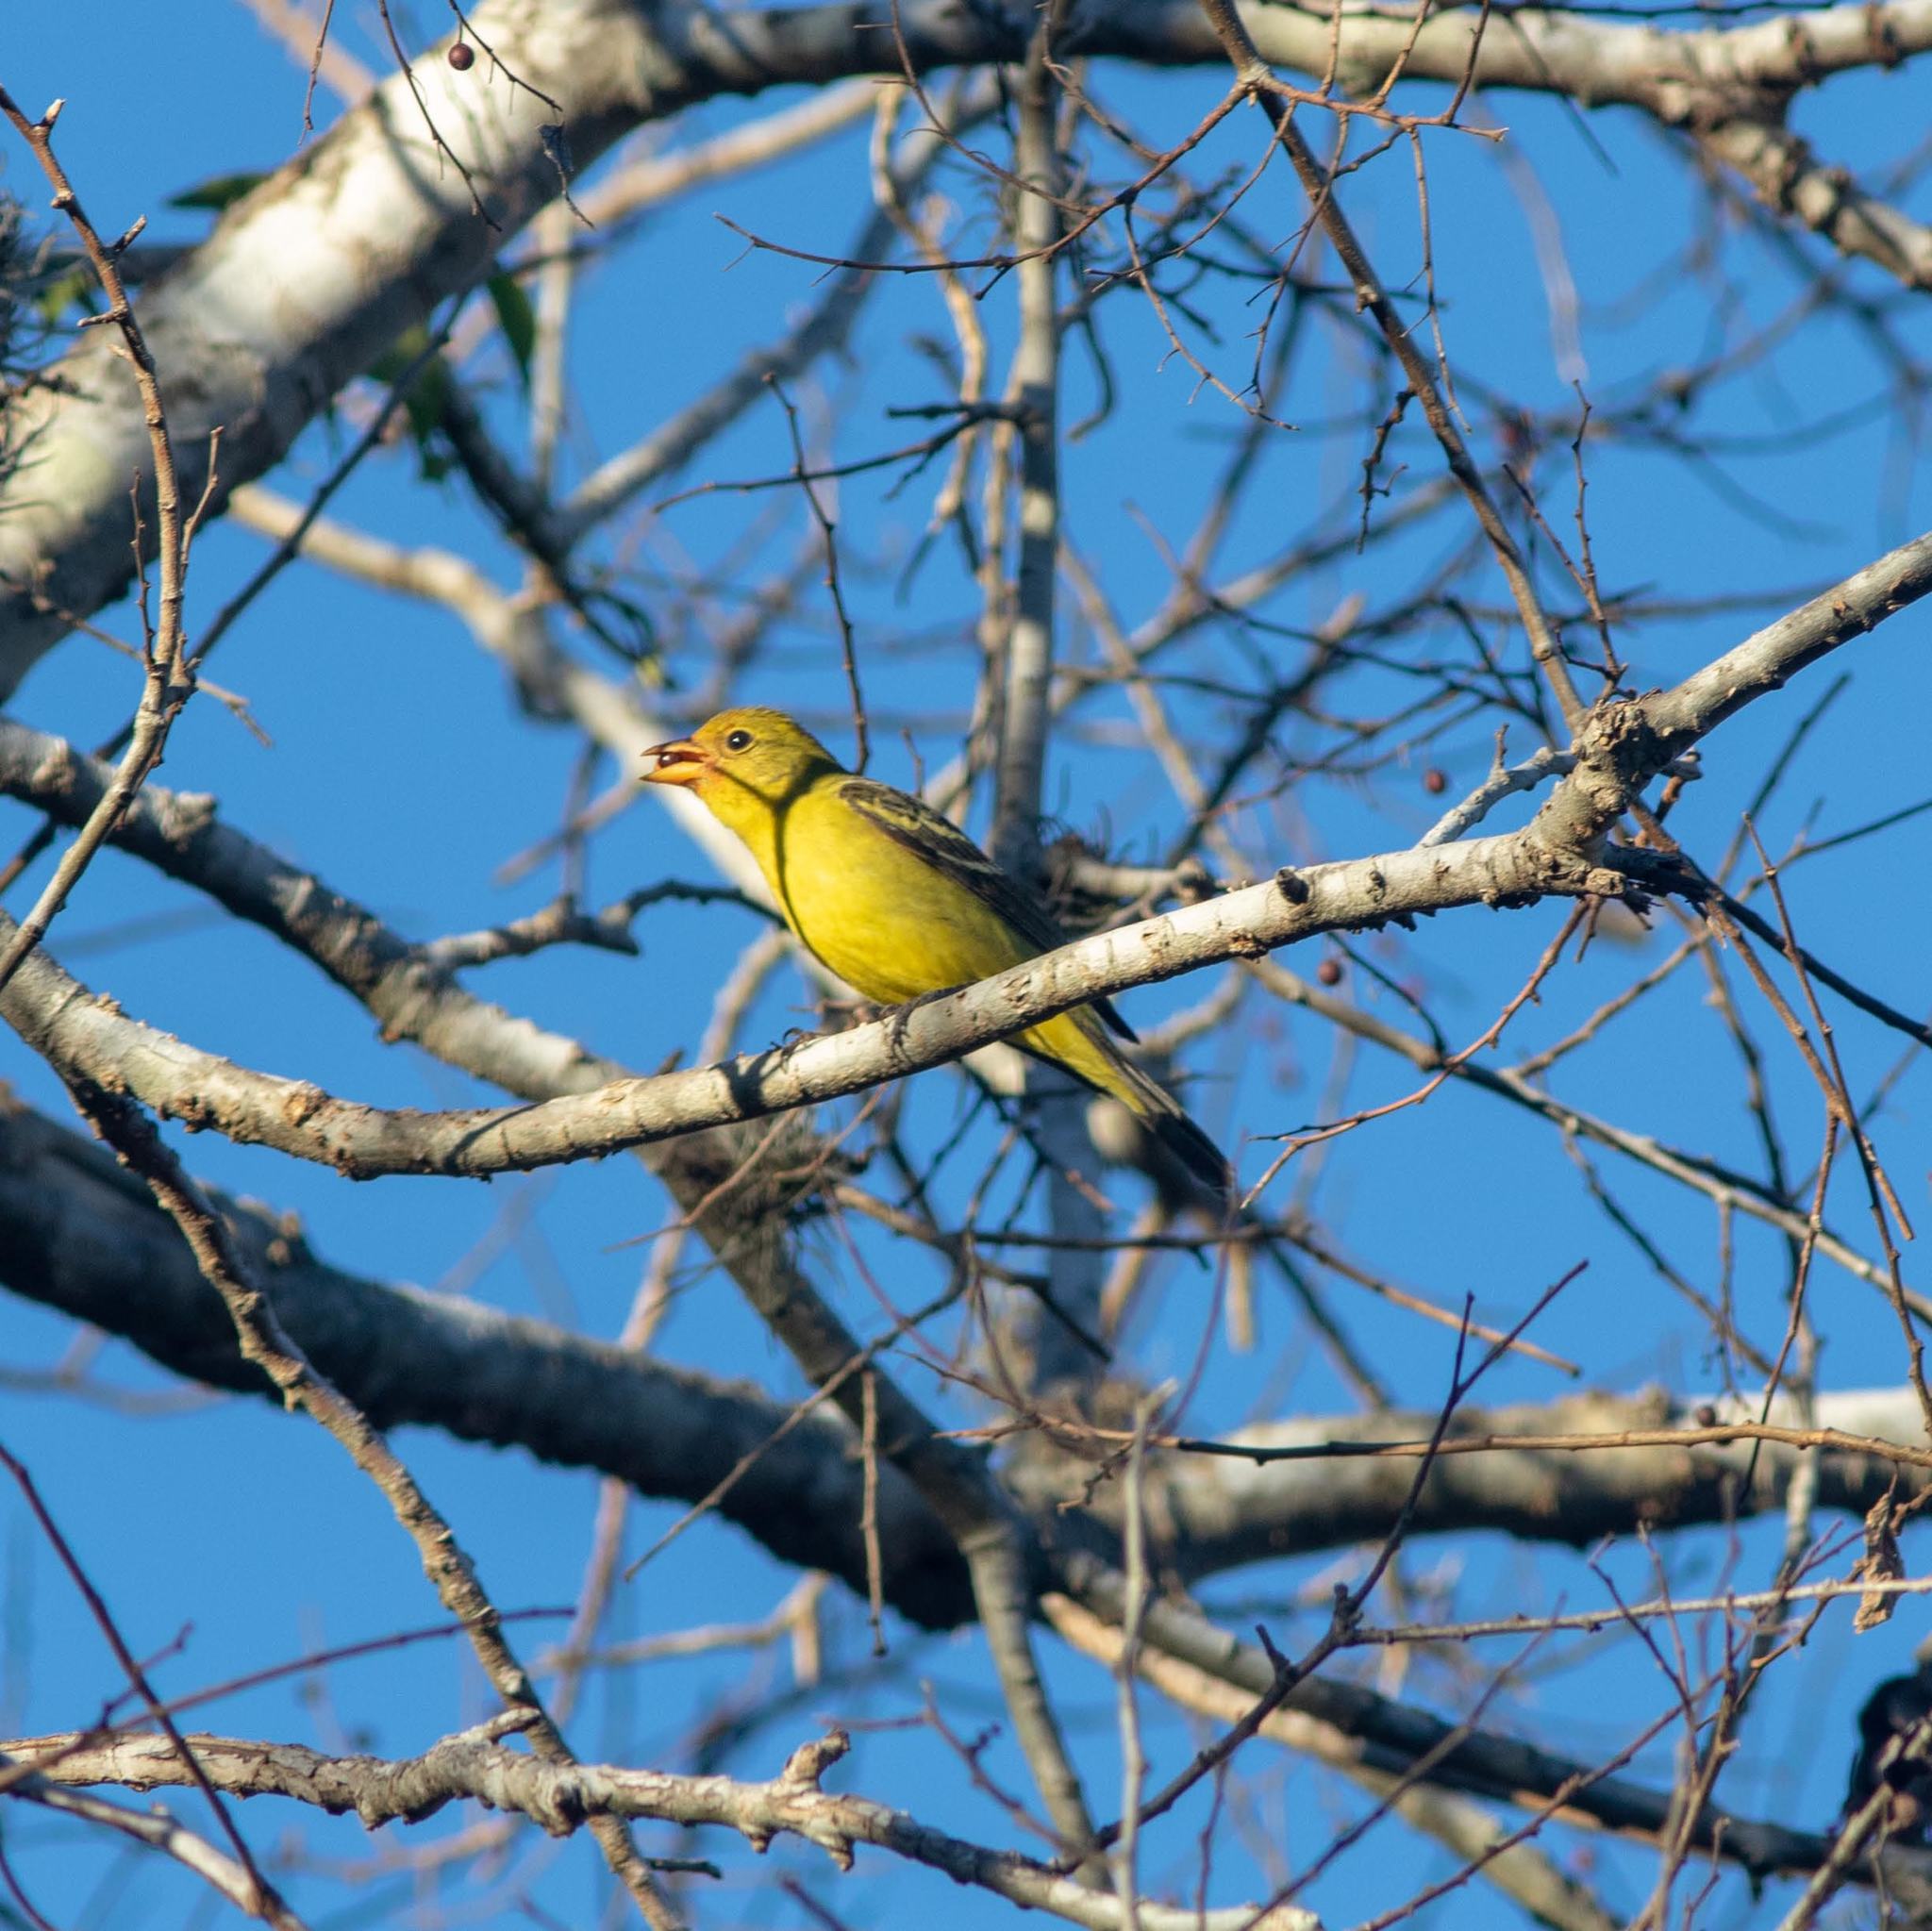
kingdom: Animalia
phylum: Chordata
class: Aves
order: Passeriformes
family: Cardinalidae
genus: Piranga
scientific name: Piranga ludoviciana
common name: Western tanager
